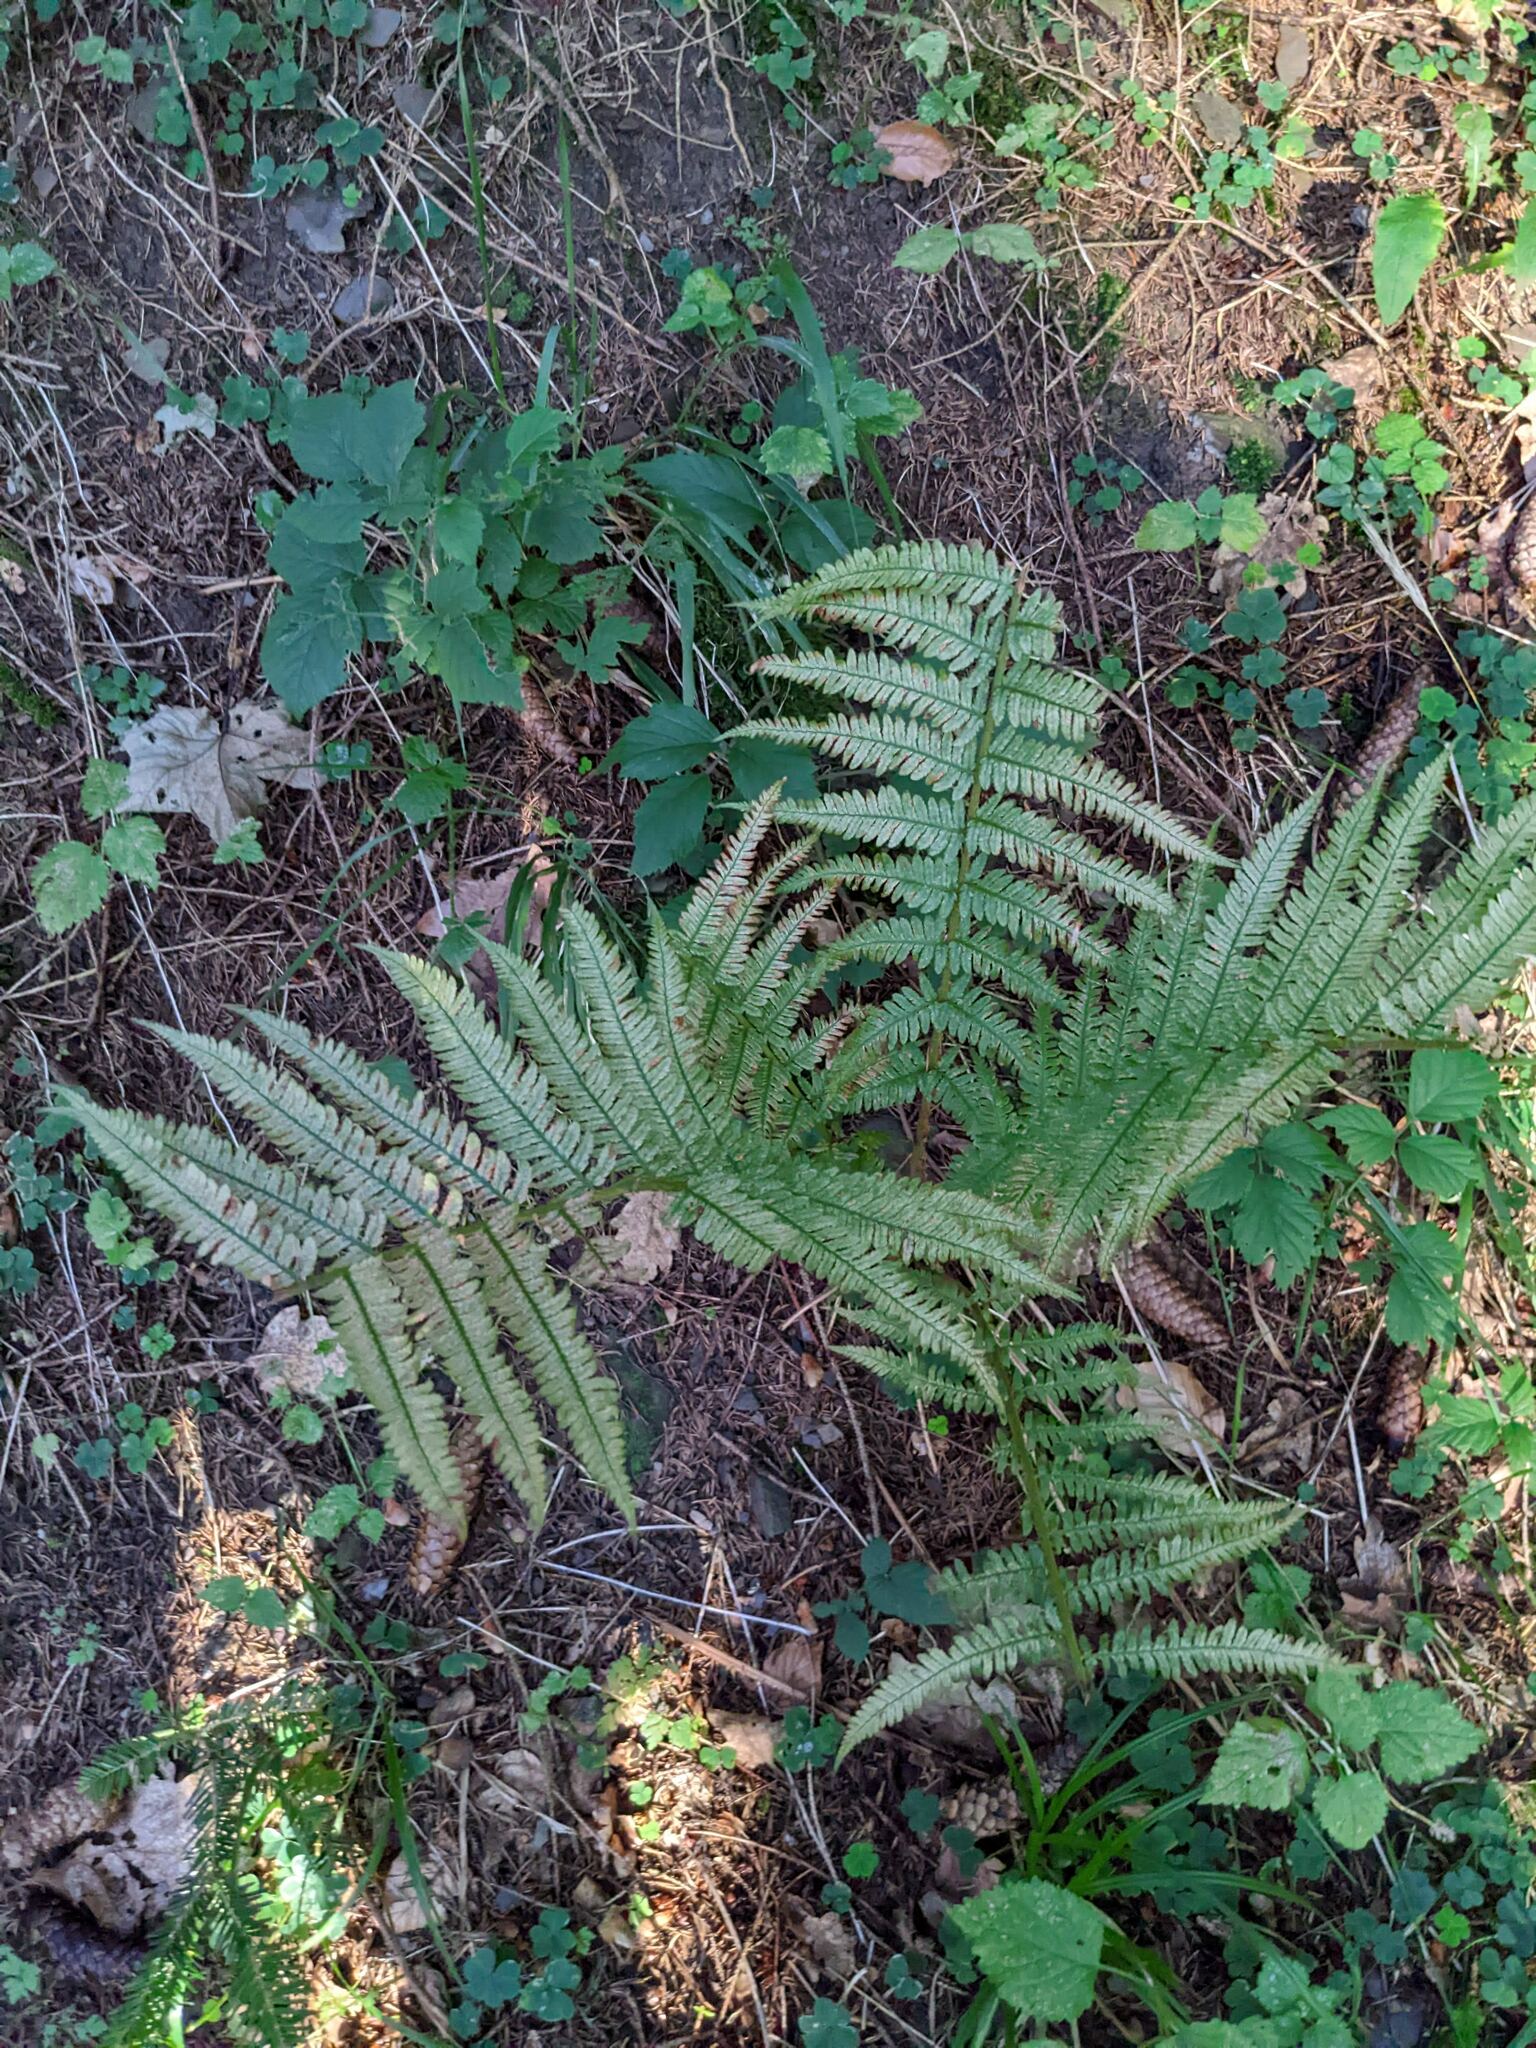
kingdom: Plantae
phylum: Tracheophyta
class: Polypodiopsida
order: Polypodiales
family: Dryopteridaceae
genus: Dryopteris
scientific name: Dryopteris filix-mas
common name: Male fern
